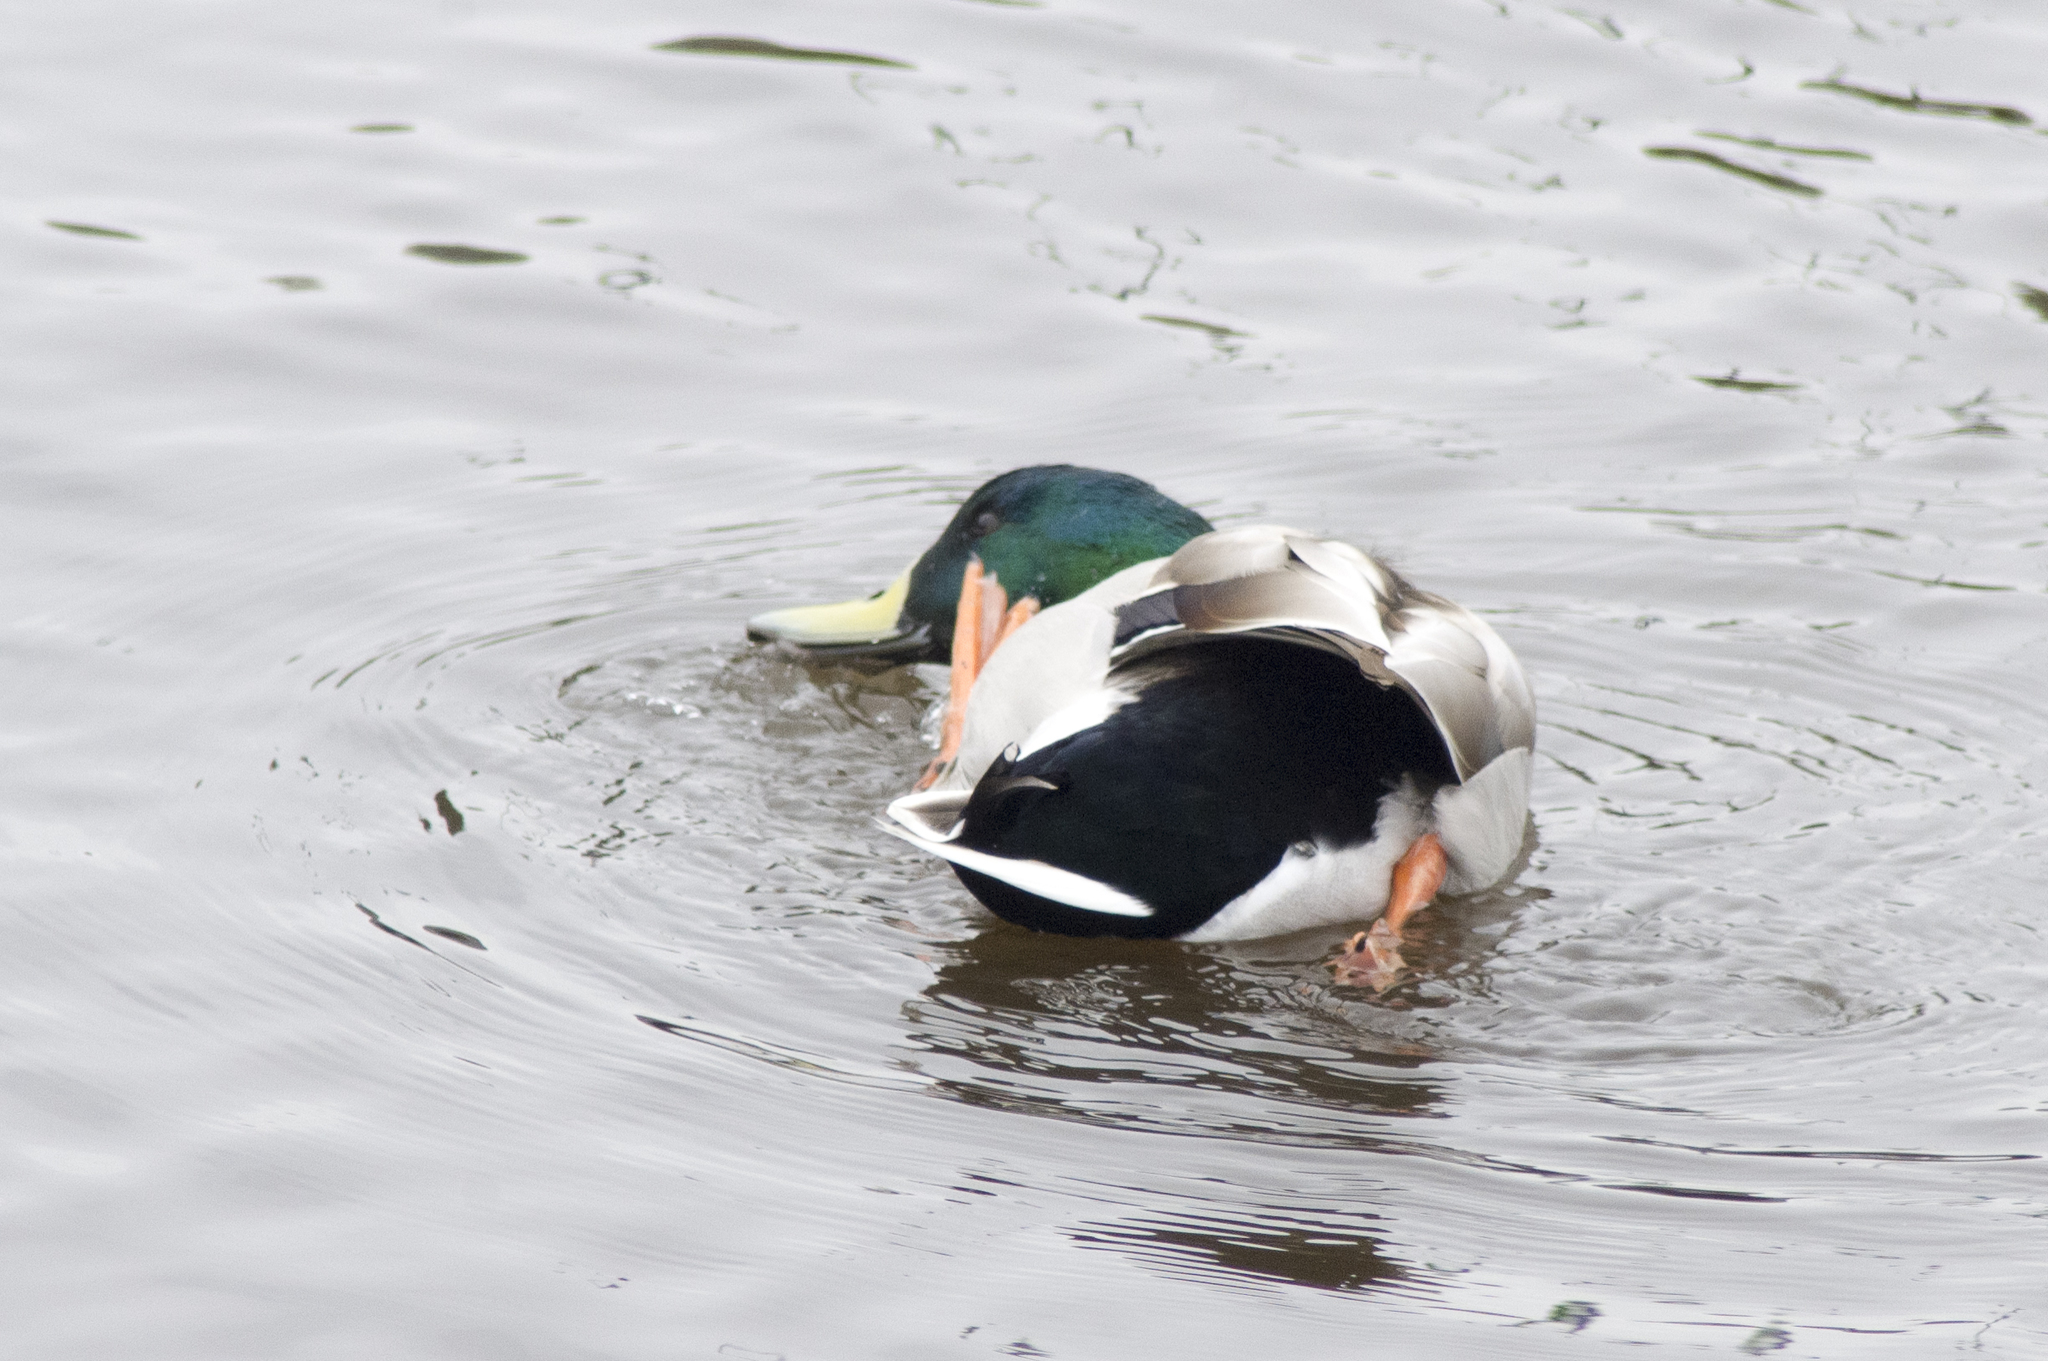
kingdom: Animalia
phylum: Chordata
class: Aves
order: Anseriformes
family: Anatidae
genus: Anas
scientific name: Anas platyrhynchos
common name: Mallard
